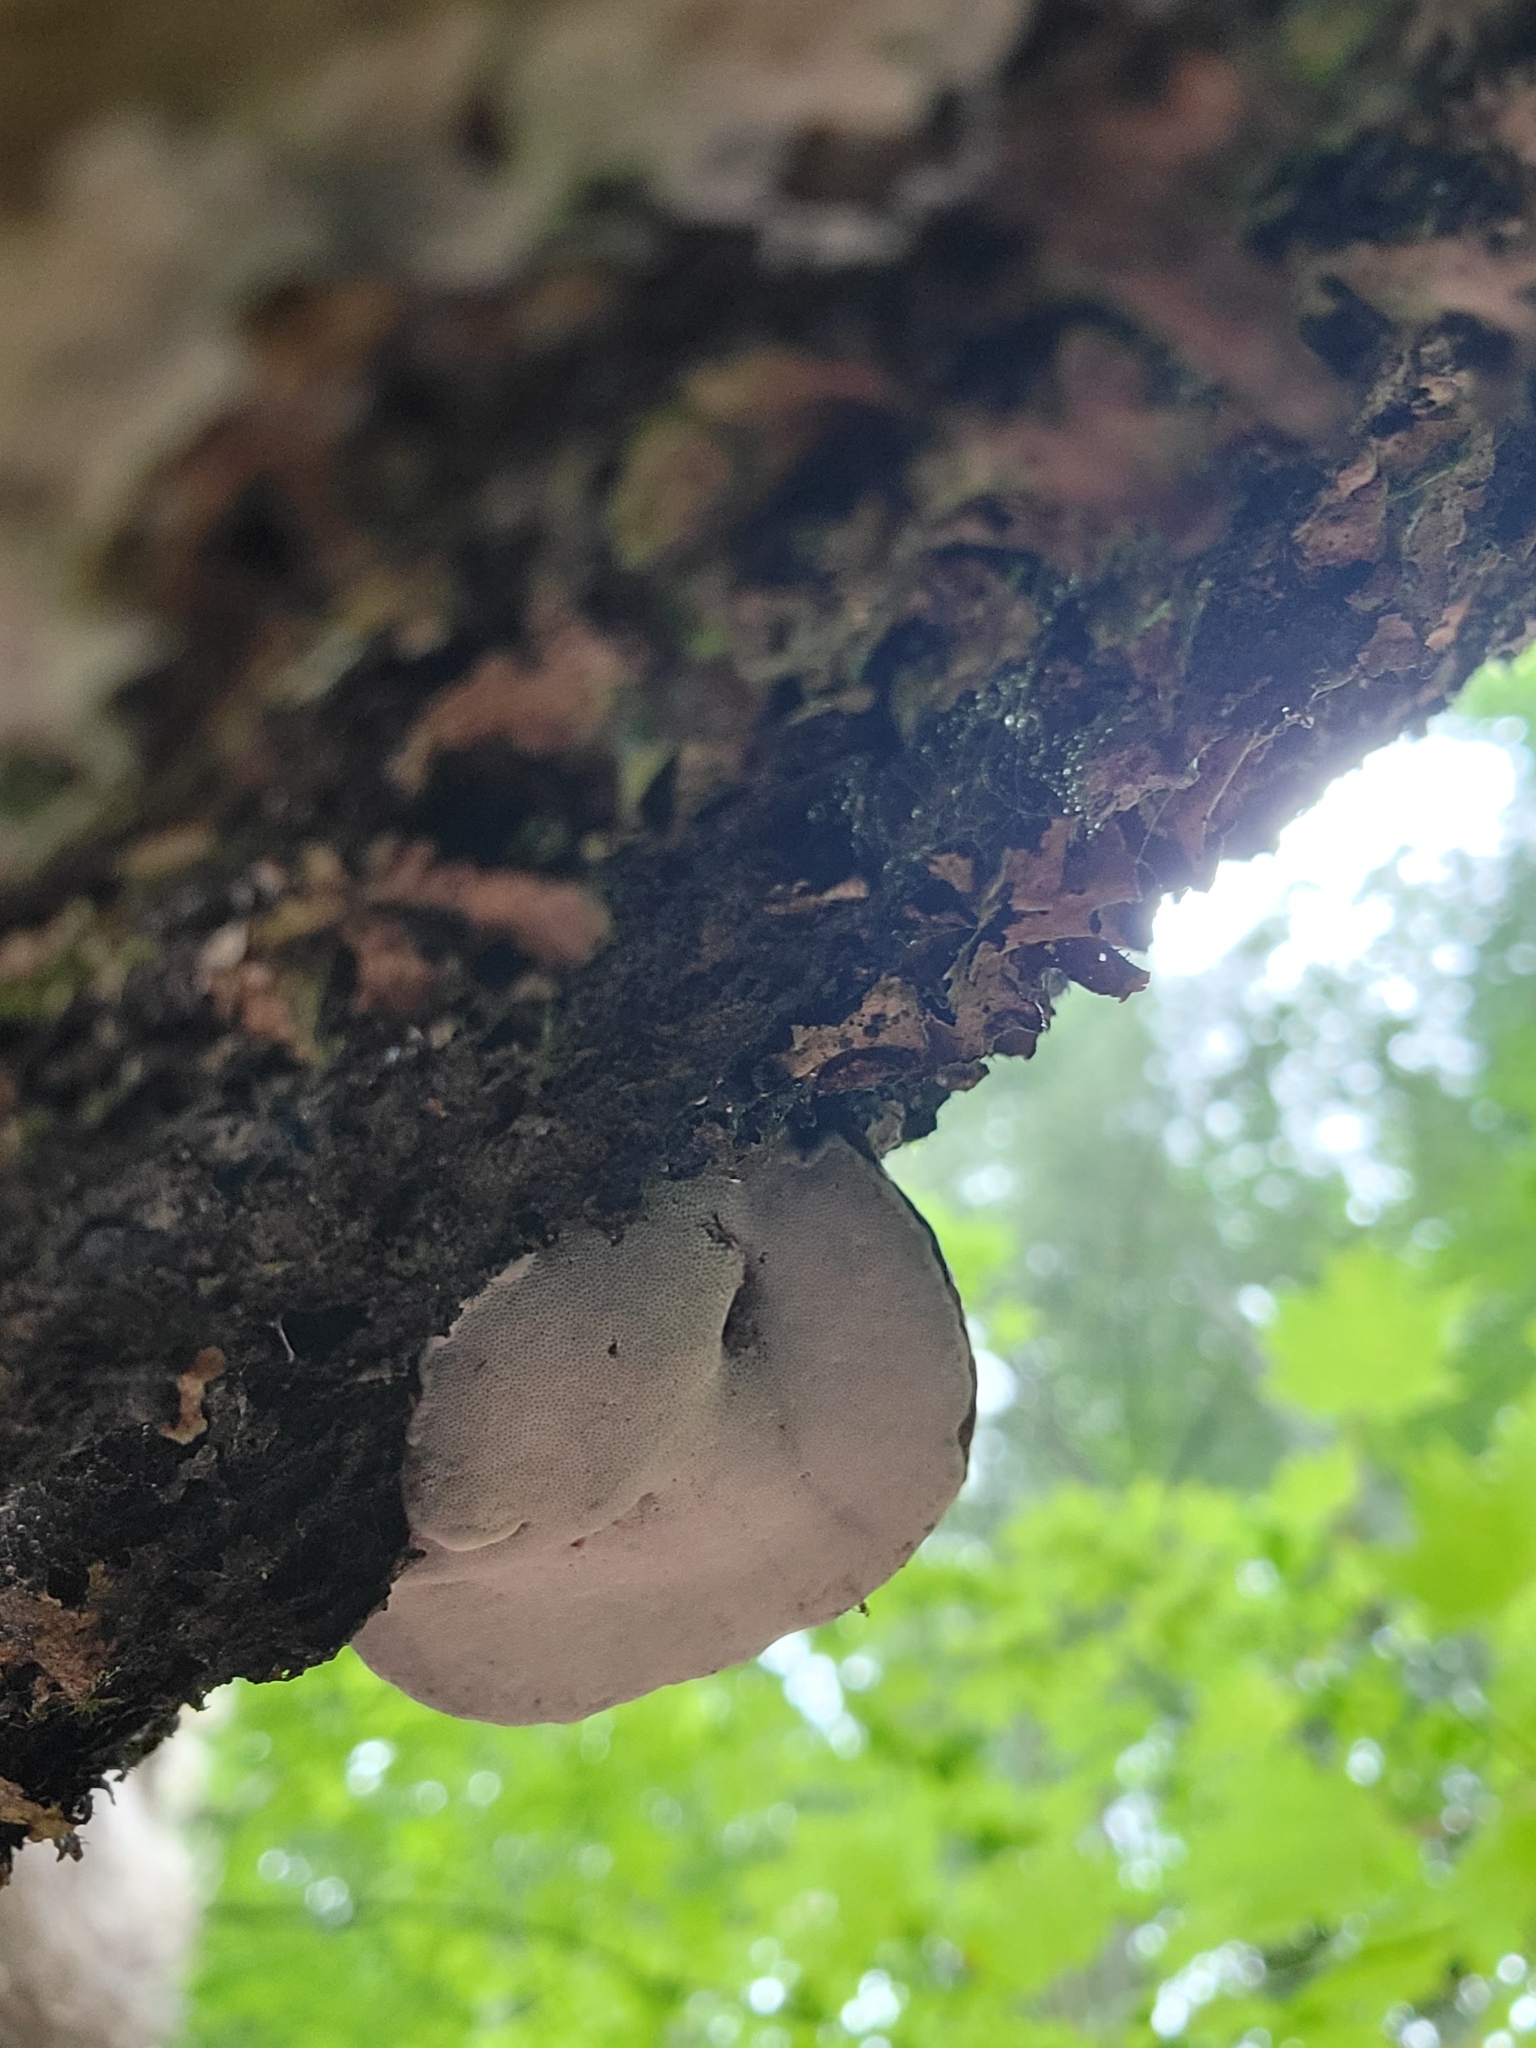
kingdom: Fungi
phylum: Basidiomycota
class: Agaricomycetes
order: Polyporales
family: Polyporaceae
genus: Ganoderma
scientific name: Ganoderma applanatum
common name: Artist's bracket
